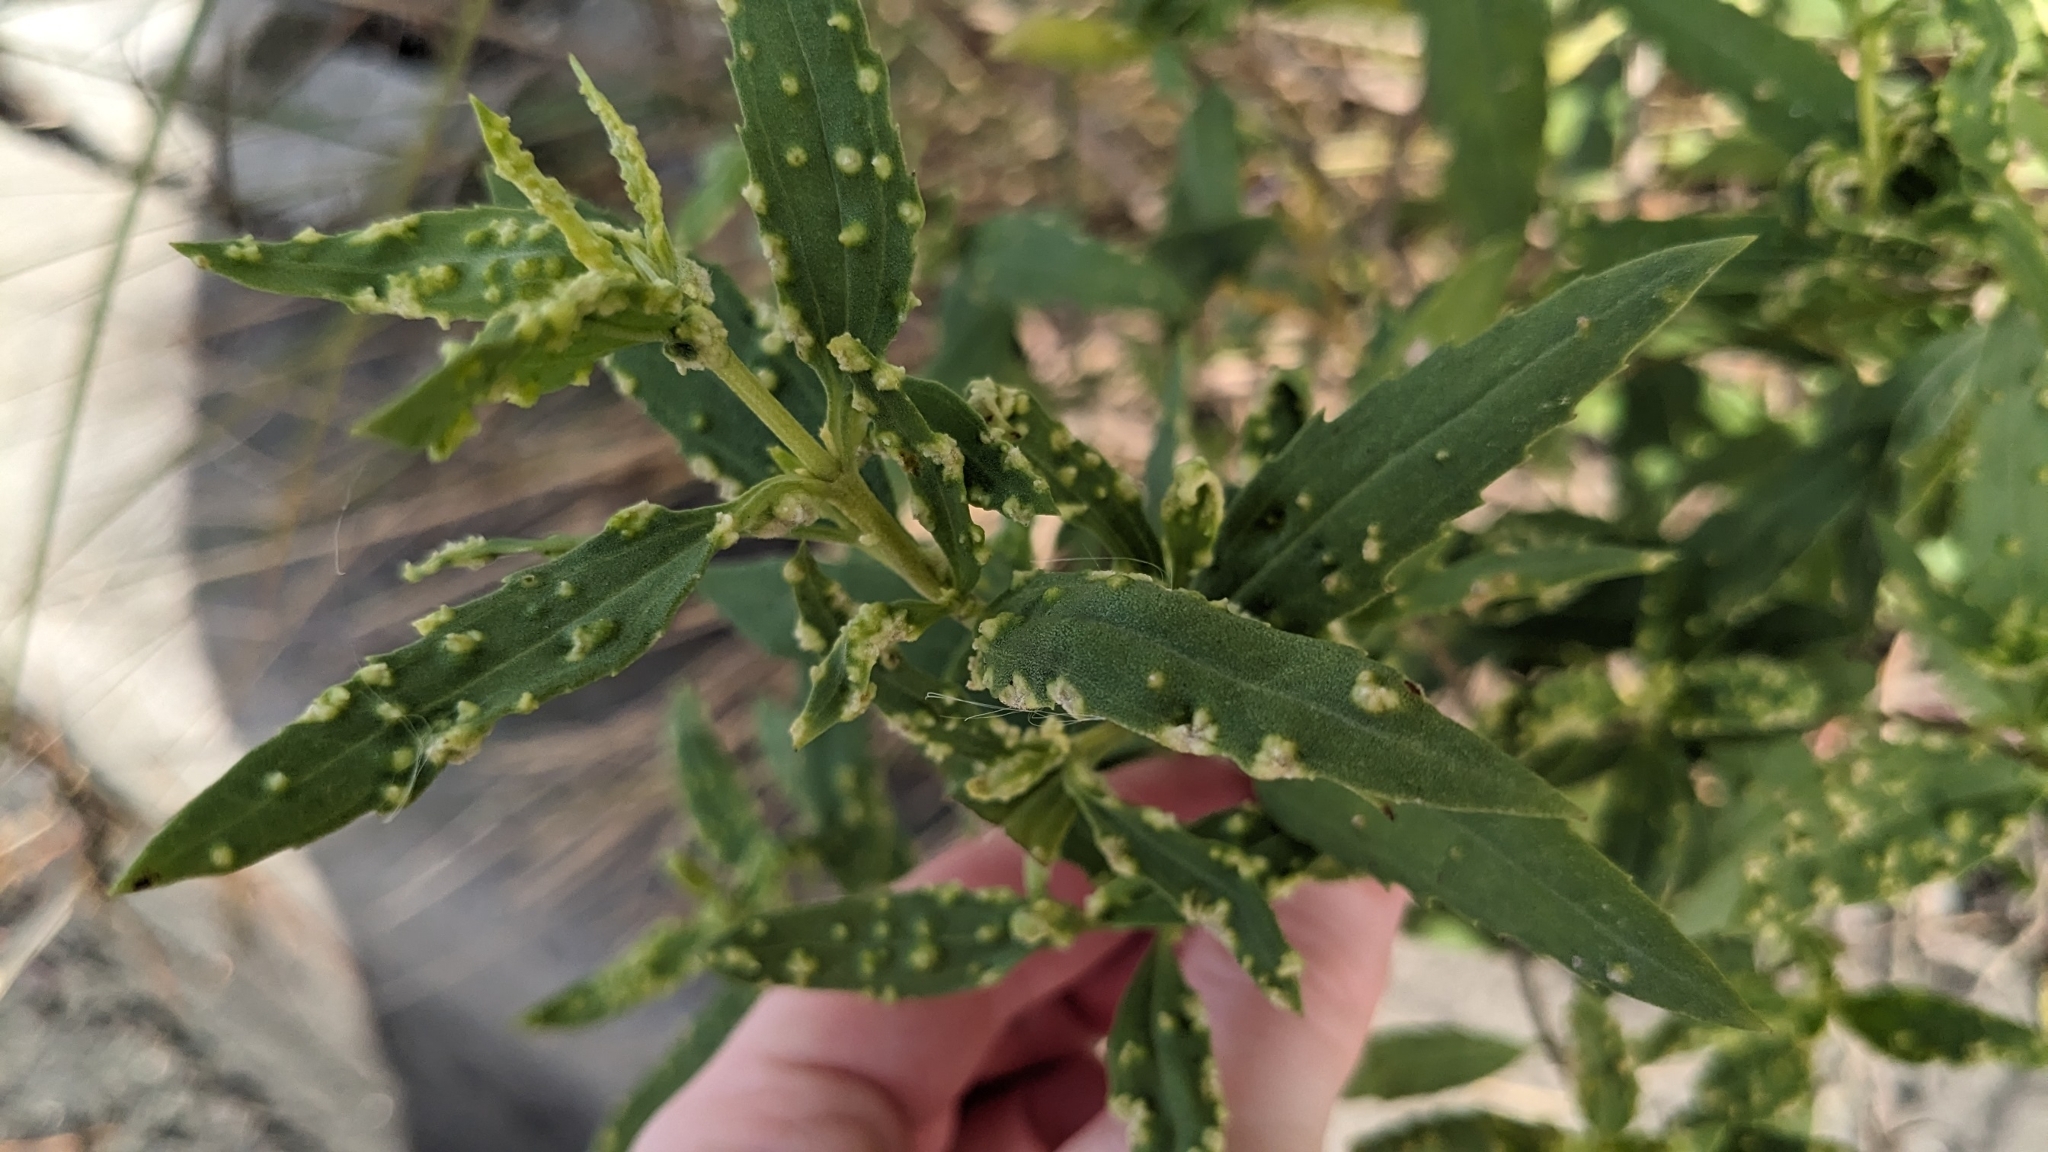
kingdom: Plantae
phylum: Tracheophyta
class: Magnoliopsida
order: Asterales
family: Asteraceae
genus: Iva
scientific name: Iva frutescens
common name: Big-leaved marsh-elder
